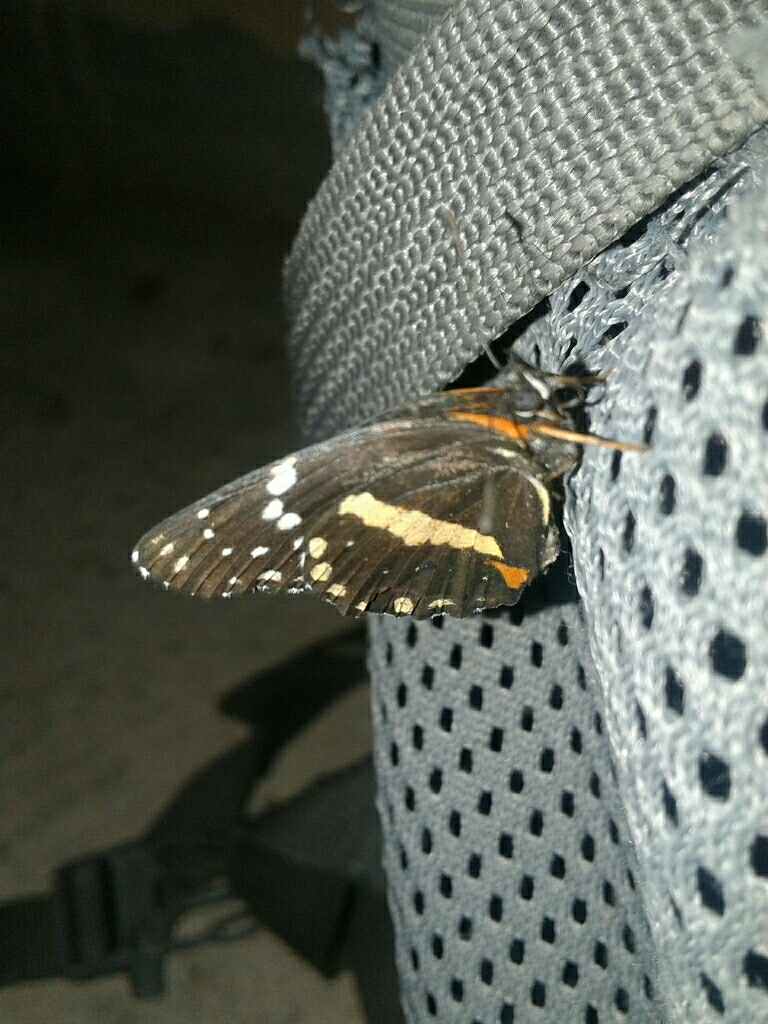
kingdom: Animalia
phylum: Arthropoda
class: Insecta
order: Lepidoptera
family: Nymphalidae
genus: Chlosyne
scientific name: Chlosyne lacinia
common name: Bordered patch
